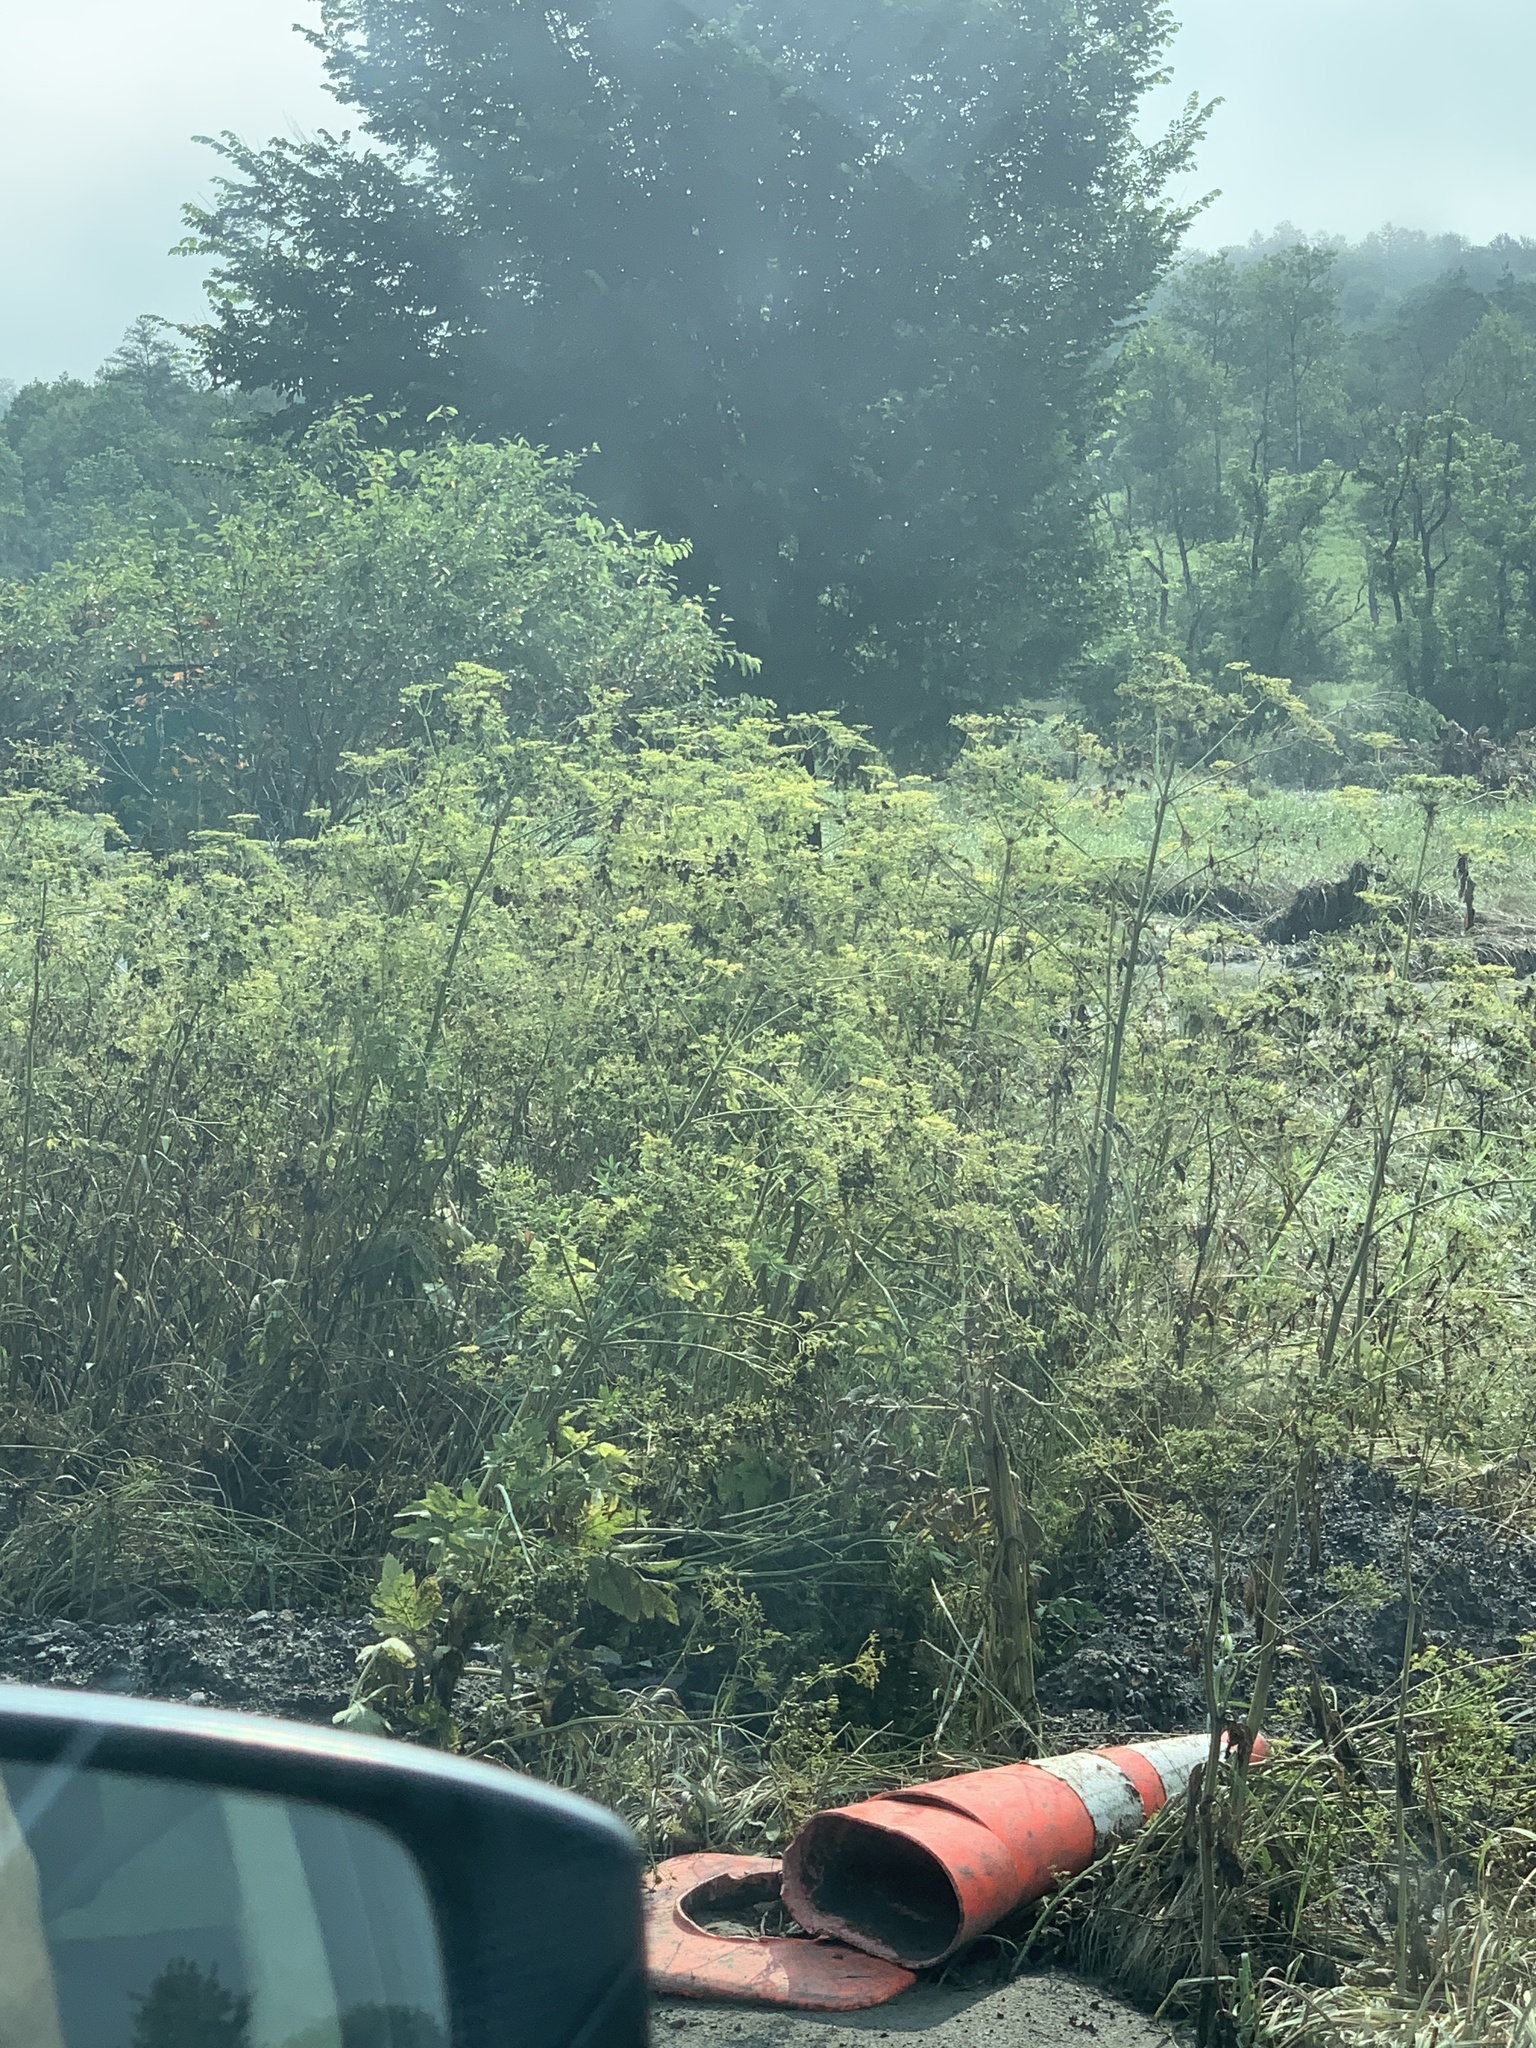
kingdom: Plantae
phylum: Tracheophyta
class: Magnoliopsida
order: Apiales
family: Apiaceae
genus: Pastinaca
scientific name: Pastinaca sativa
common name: Wild parsnip
